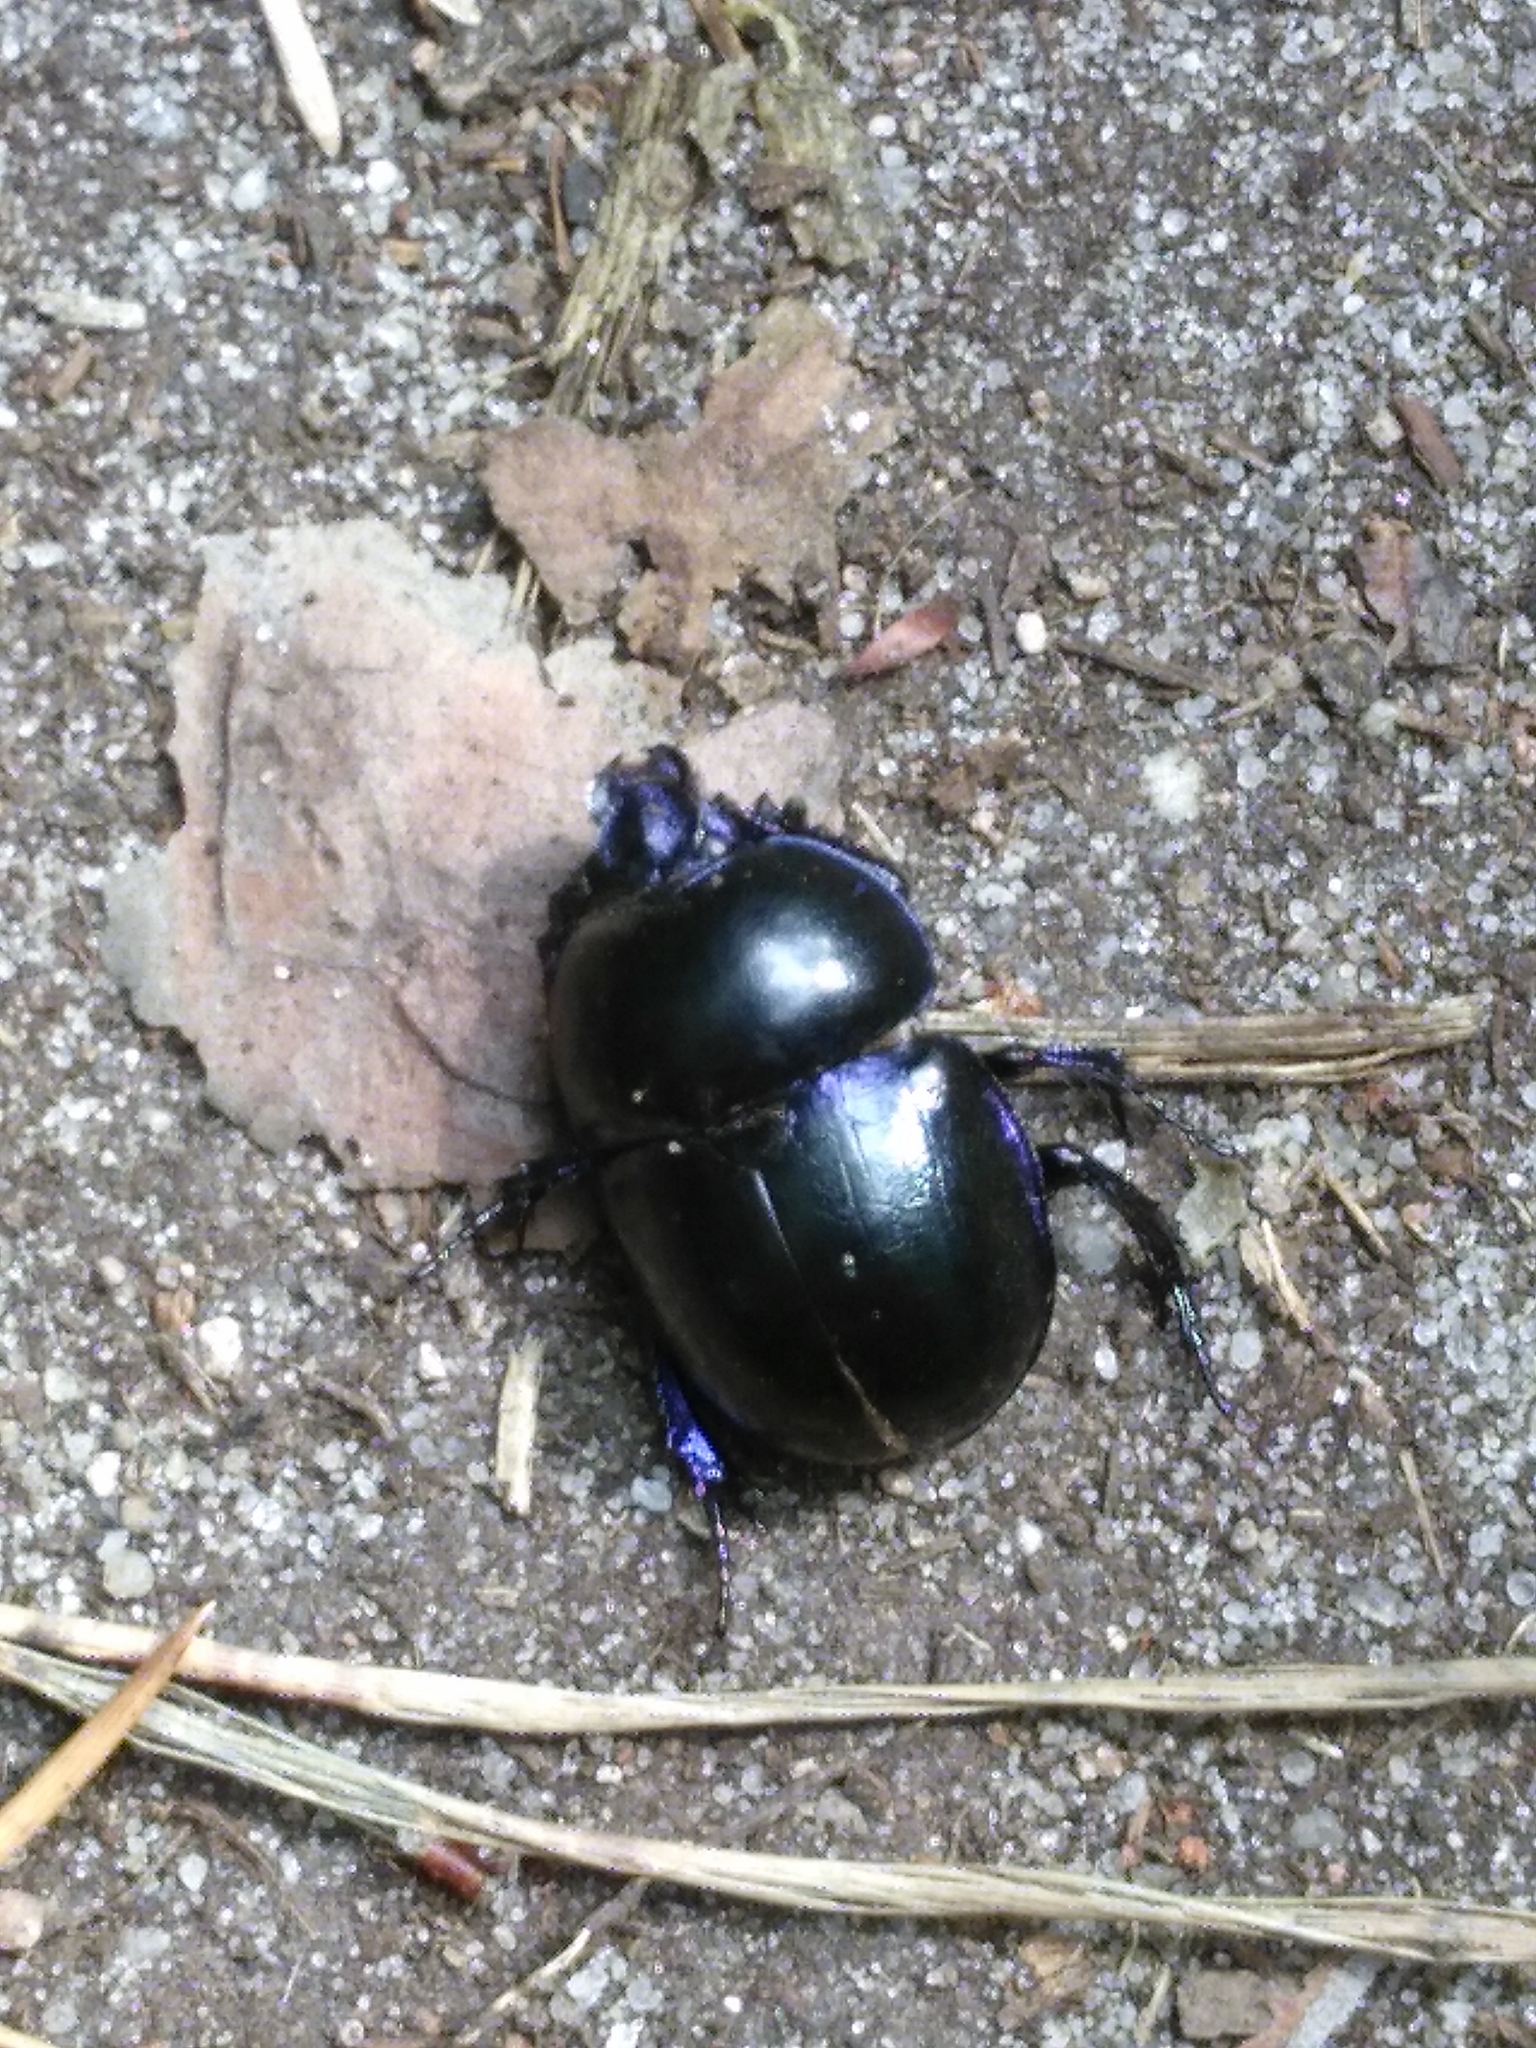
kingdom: Animalia
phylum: Arthropoda
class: Insecta
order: Coleoptera
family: Geotrupidae
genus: Trypocopris
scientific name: Trypocopris vernalis
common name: Spring dumbledor
